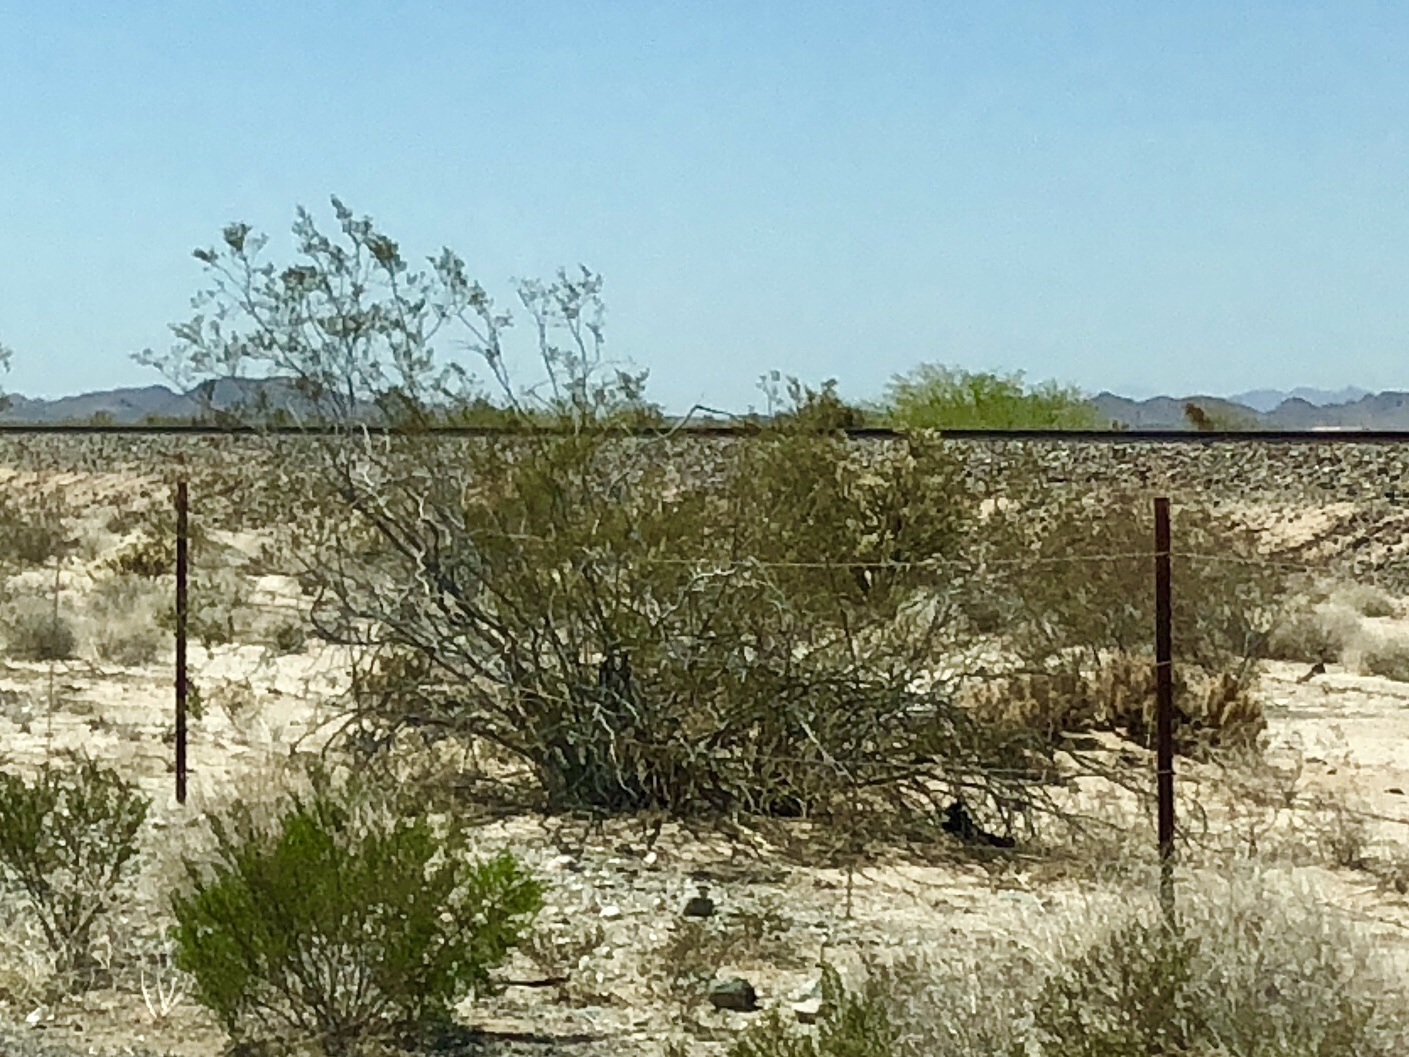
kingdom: Plantae
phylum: Tracheophyta
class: Magnoliopsida
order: Zygophyllales
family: Zygophyllaceae
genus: Larrea
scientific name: Larrea tridentata
